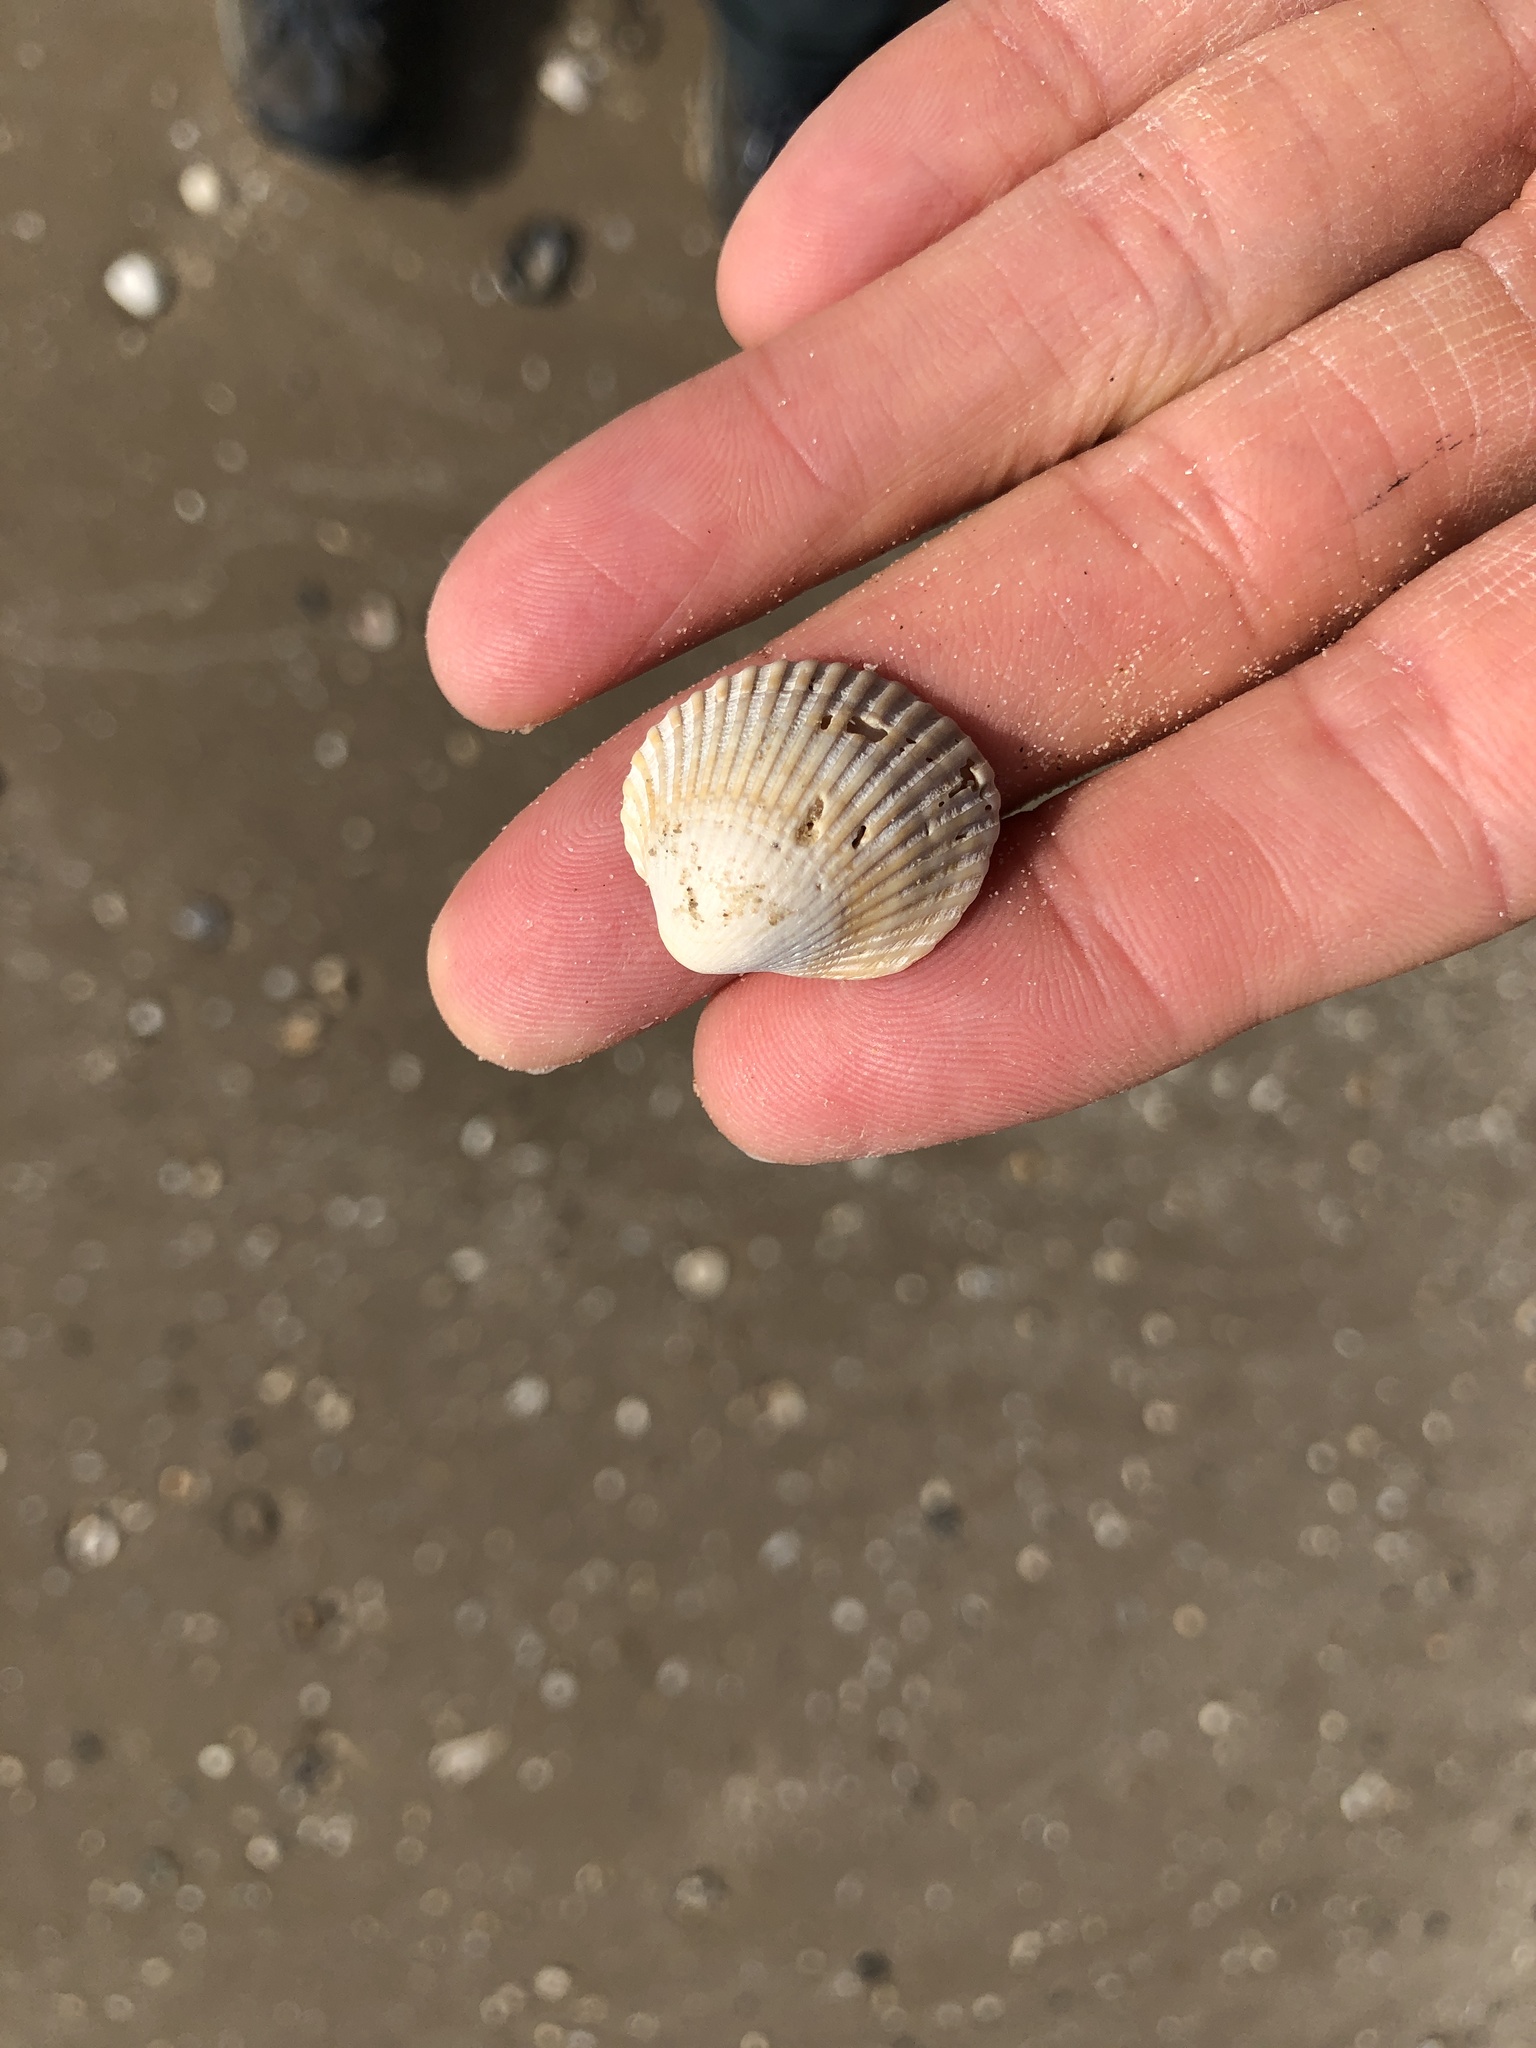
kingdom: Animalia
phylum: Mollusca
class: Bivalvia
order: Arcida
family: Arcidae
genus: Lunarca
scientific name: Lunarca ovalis
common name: Blood ark
